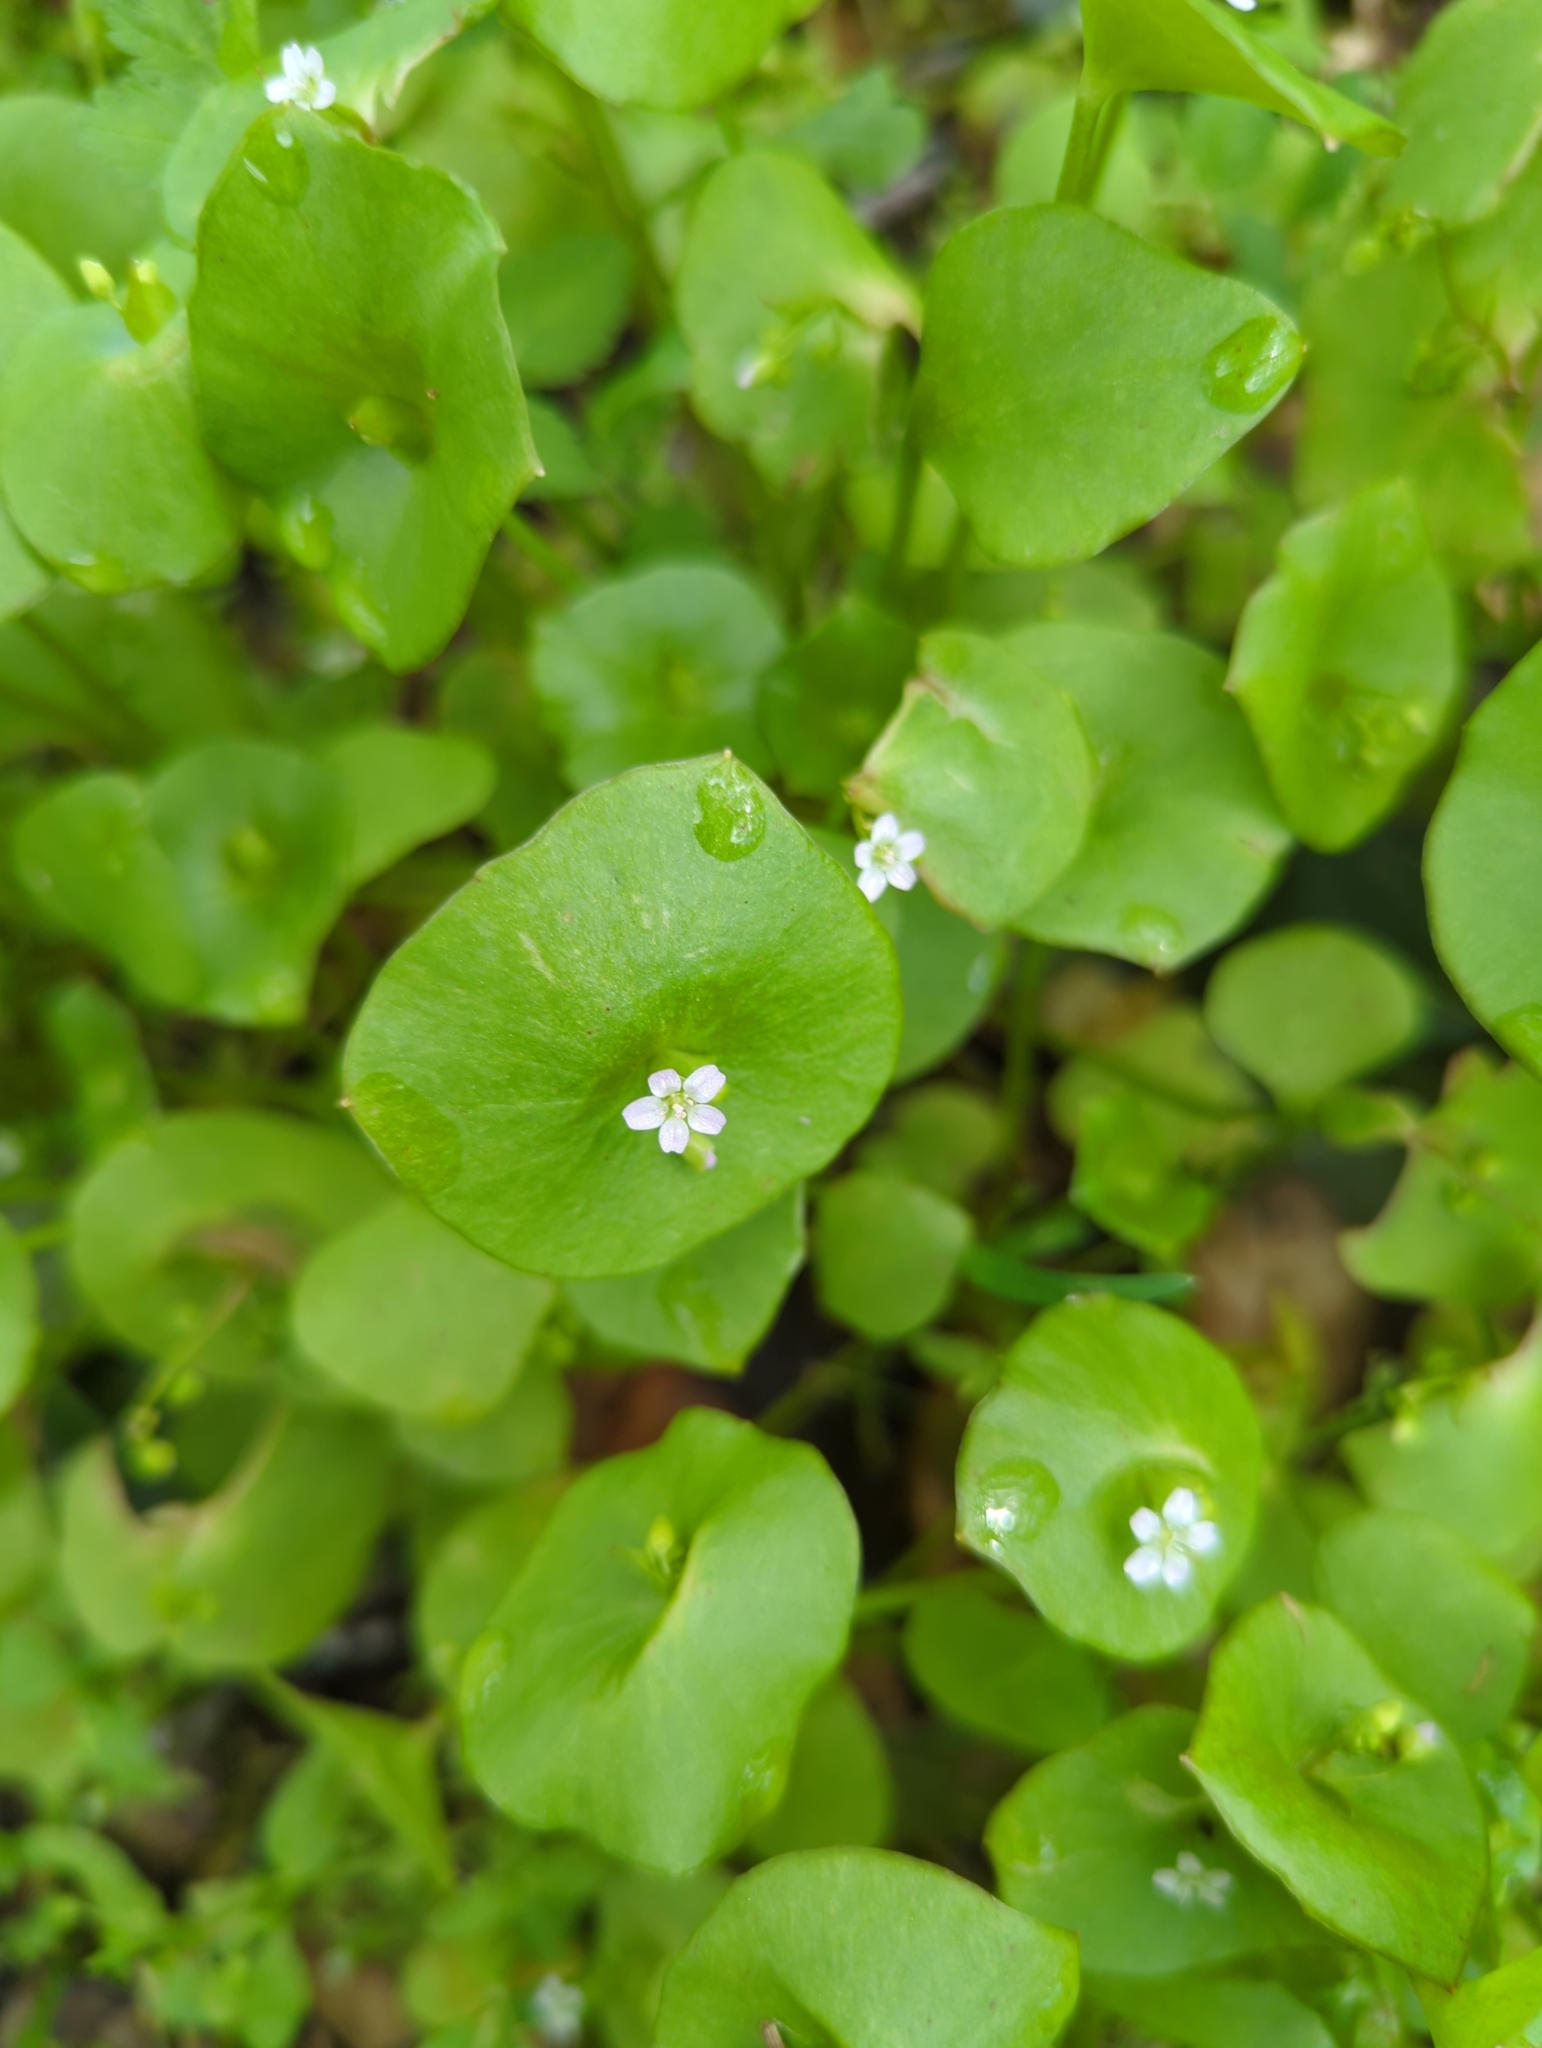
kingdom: Plantae
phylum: Tracheophyta
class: Magnoliopsida
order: Caryophyllales
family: Montiaceae
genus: Claytonia
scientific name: Claytonia perfoliata
